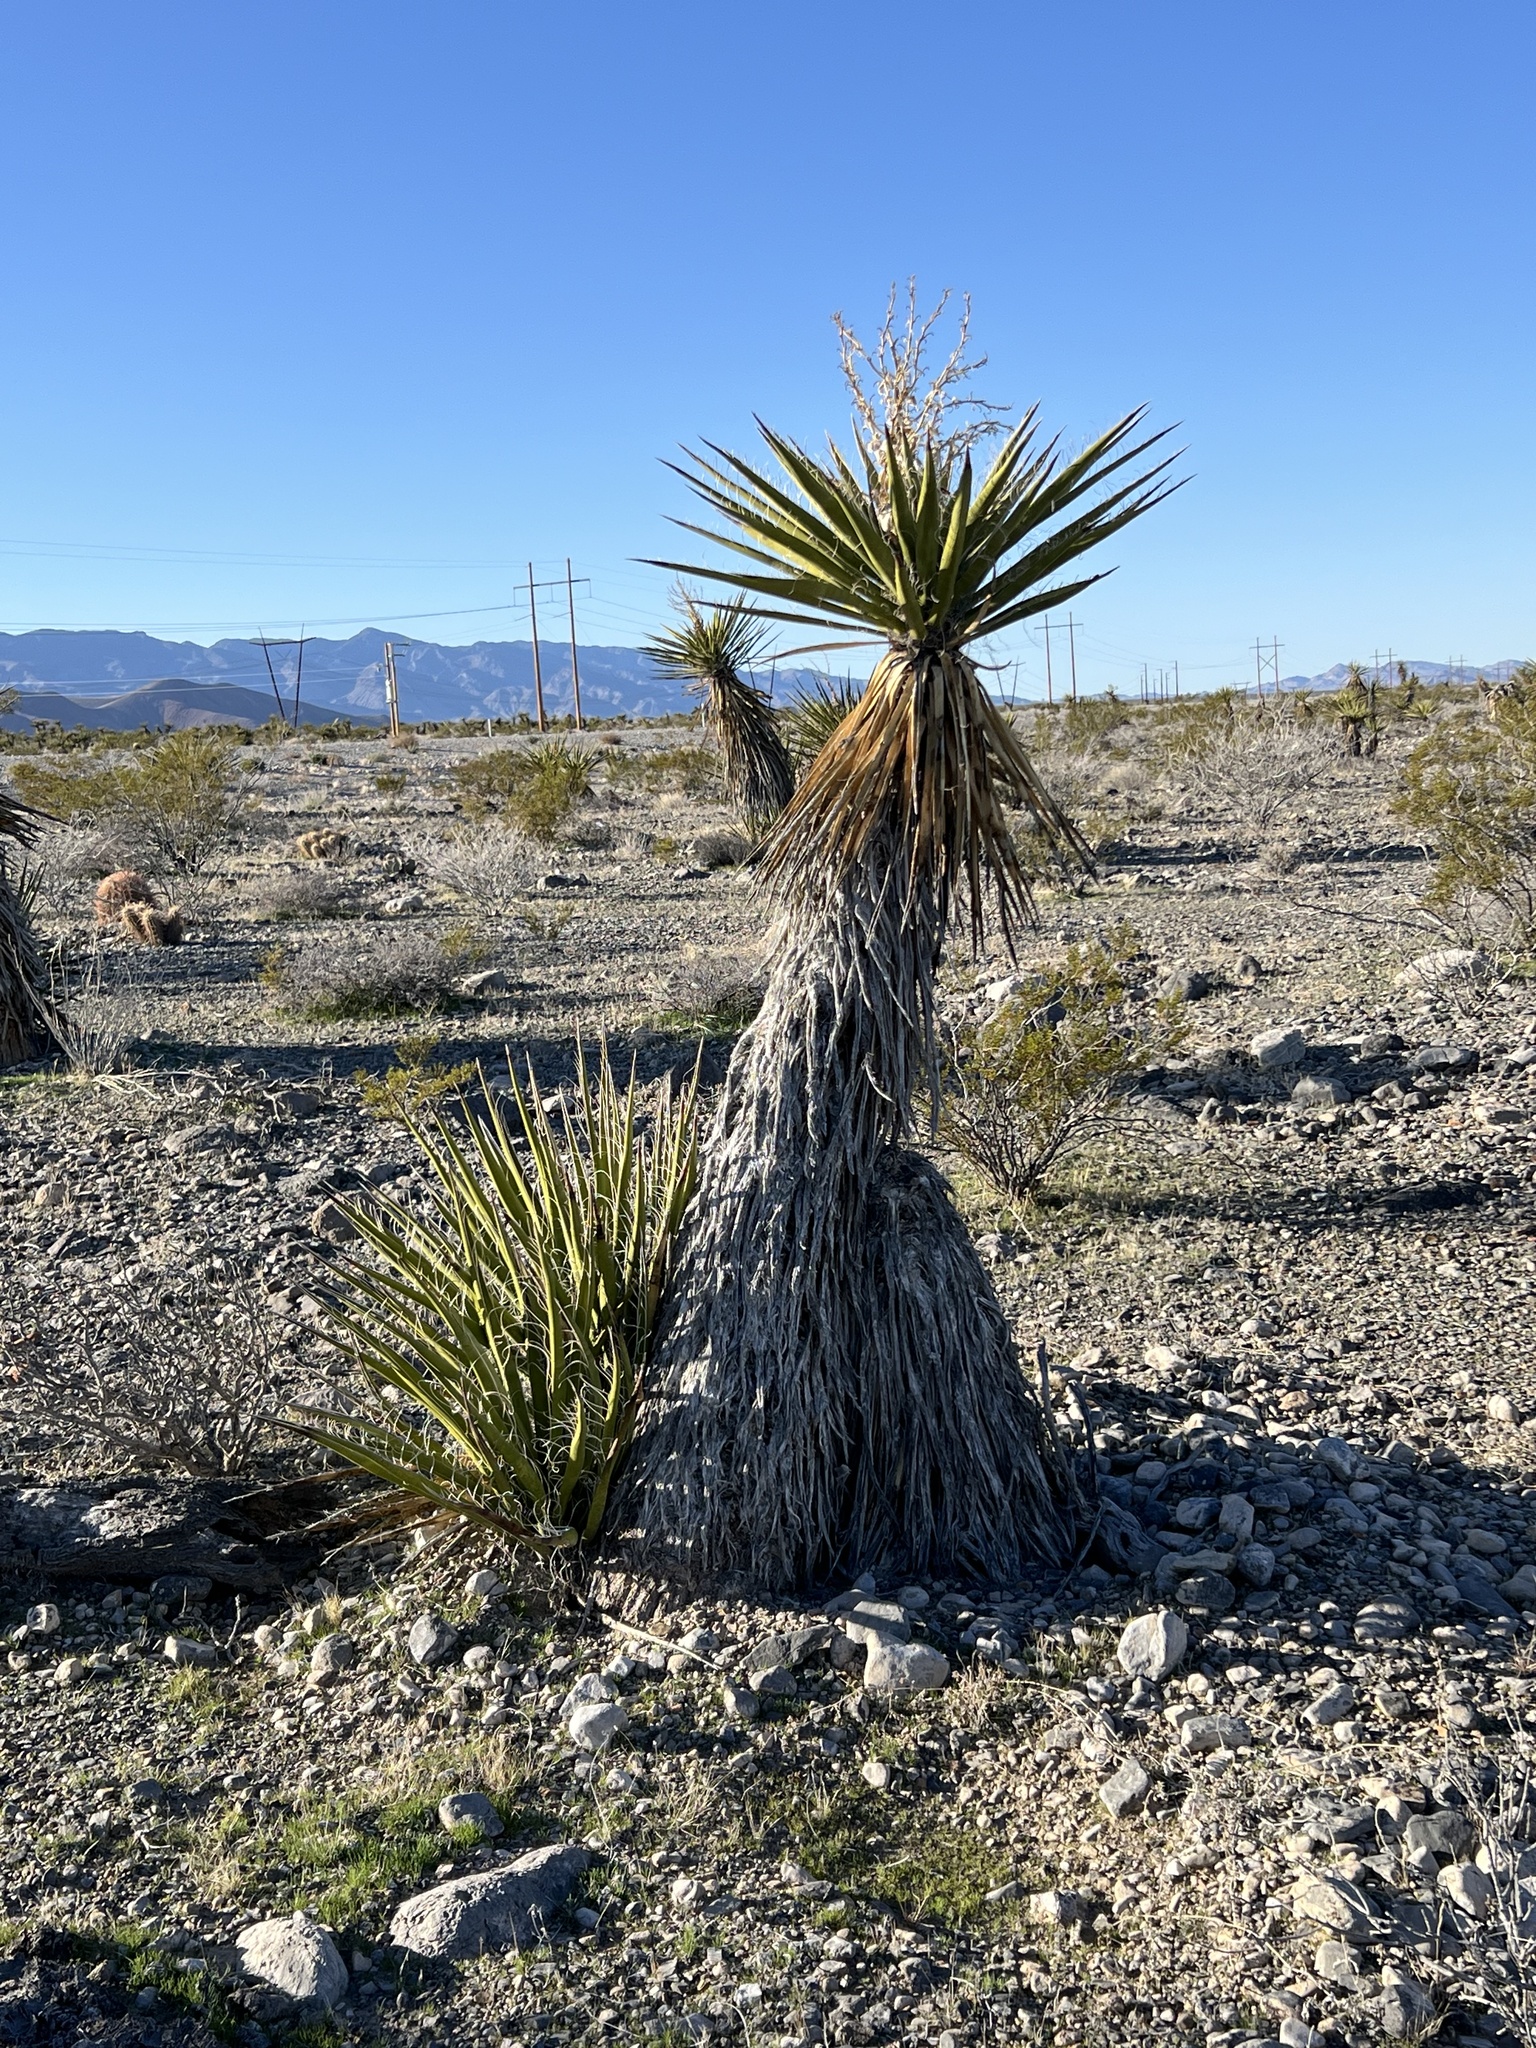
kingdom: Plantae
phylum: Tracheophyta
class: Liliopsida
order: Asparagales
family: Asparagaceae
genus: Yucca
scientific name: Yucca schidigera
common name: Mojave yucca
